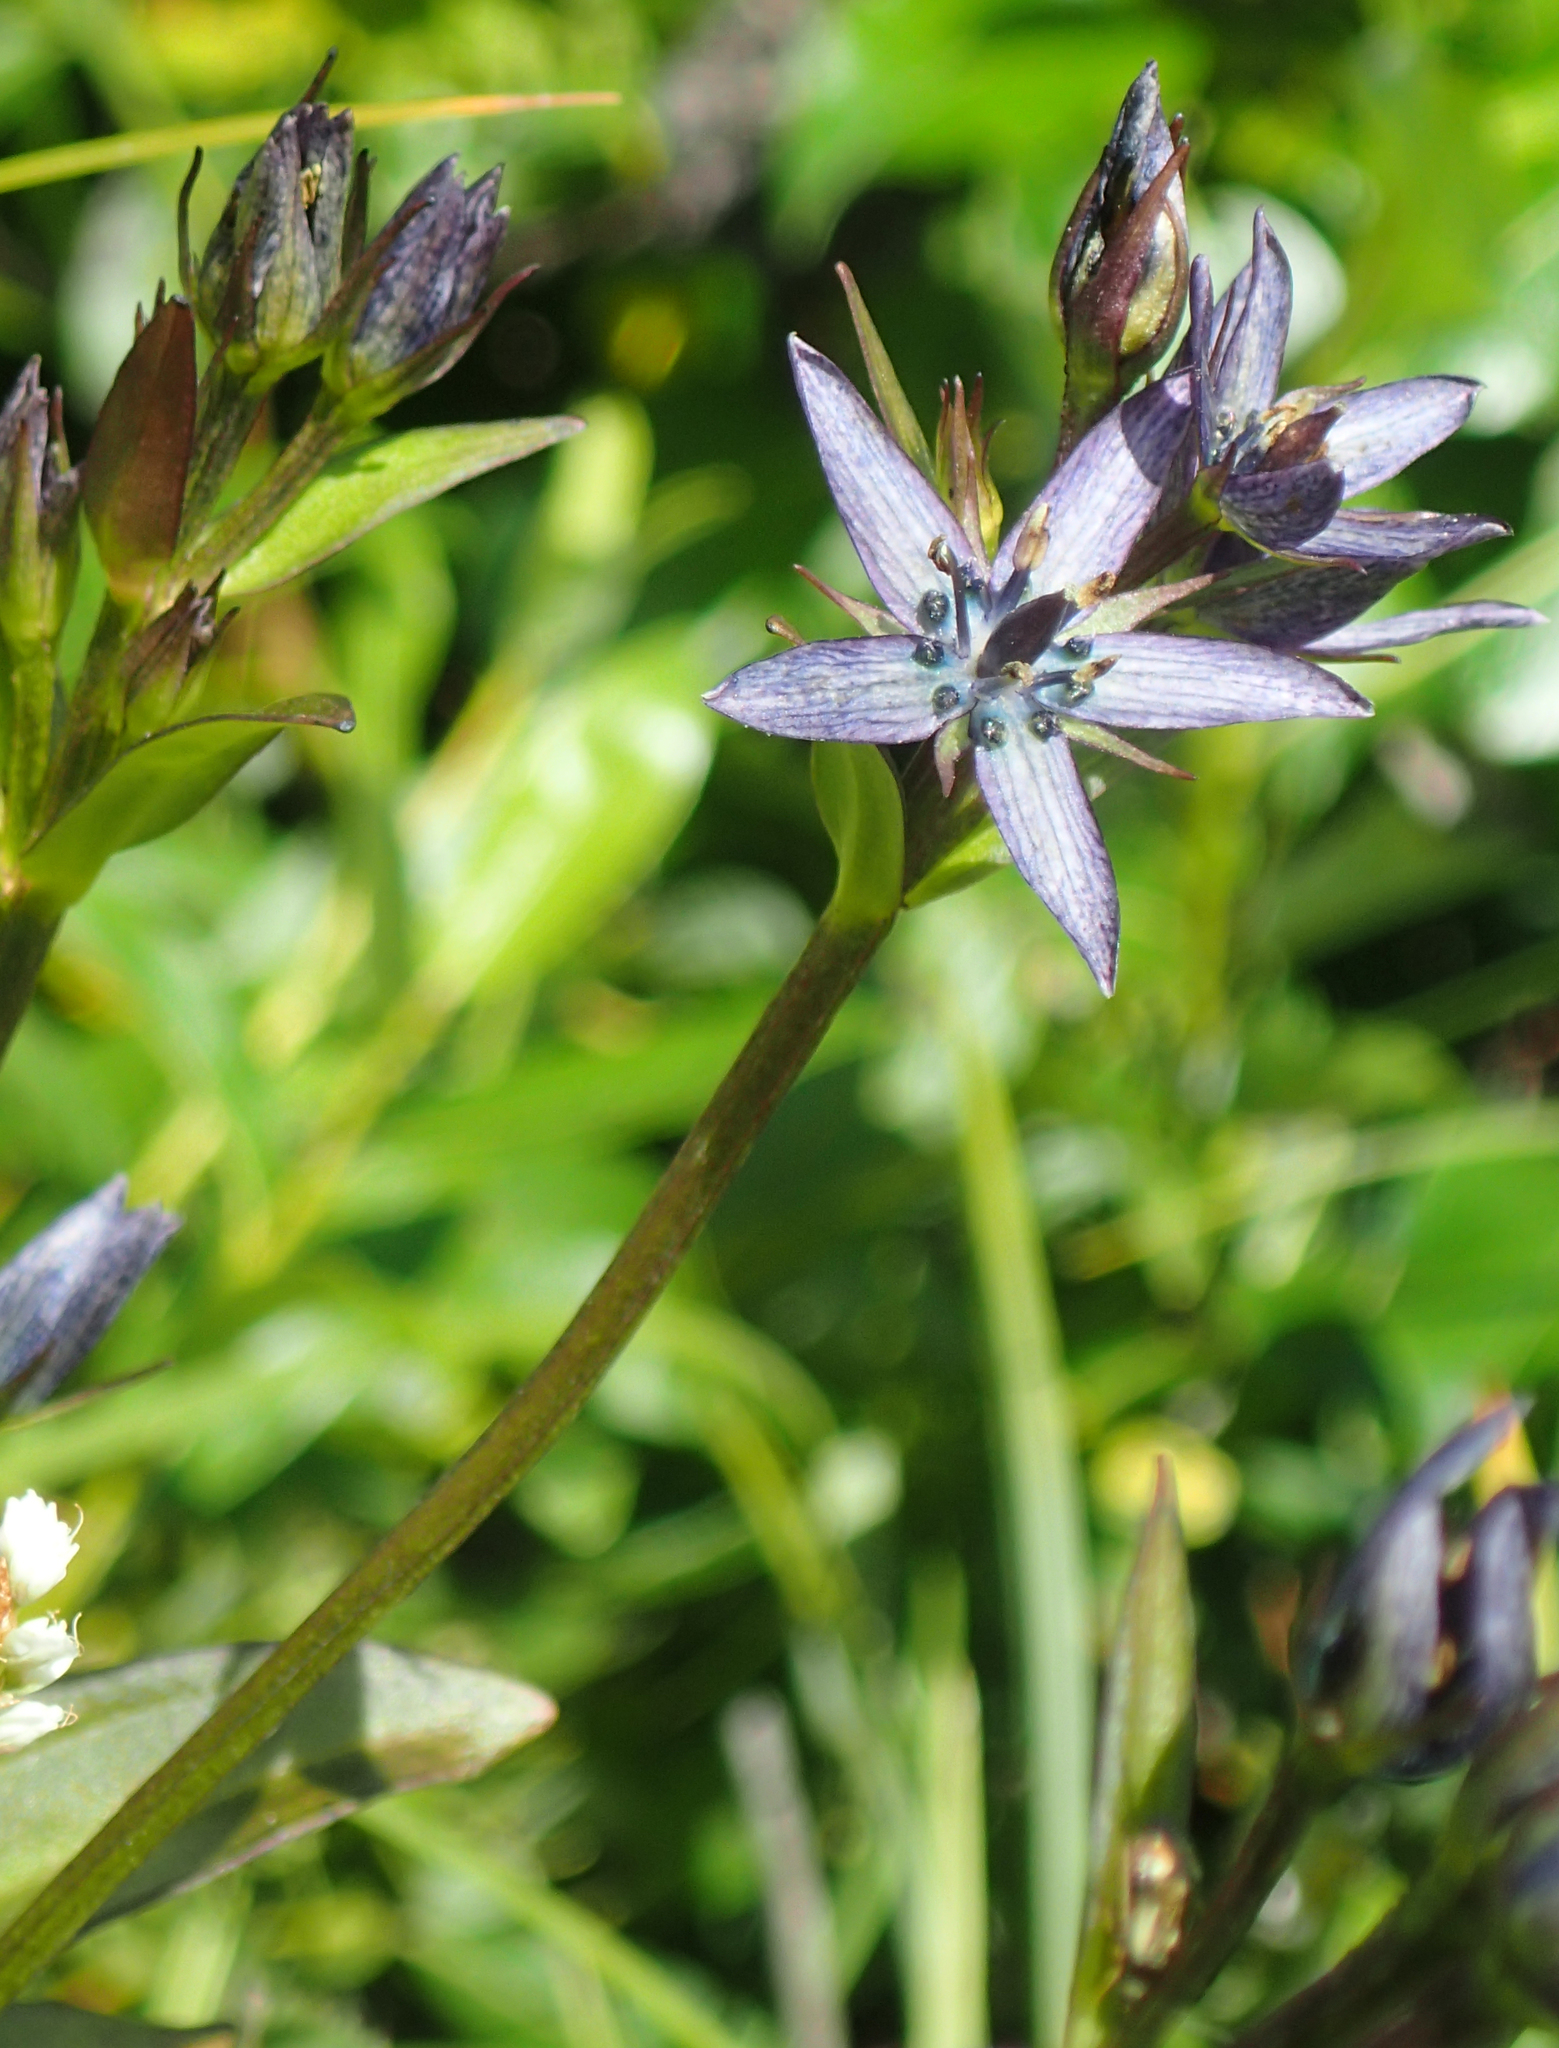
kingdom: Plantae
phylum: Tracheophyta
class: Magnoliopsida
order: Gentianales
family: Gentianaceae
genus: Swertia
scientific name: Swertia perennis
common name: Alpine bog swertia
